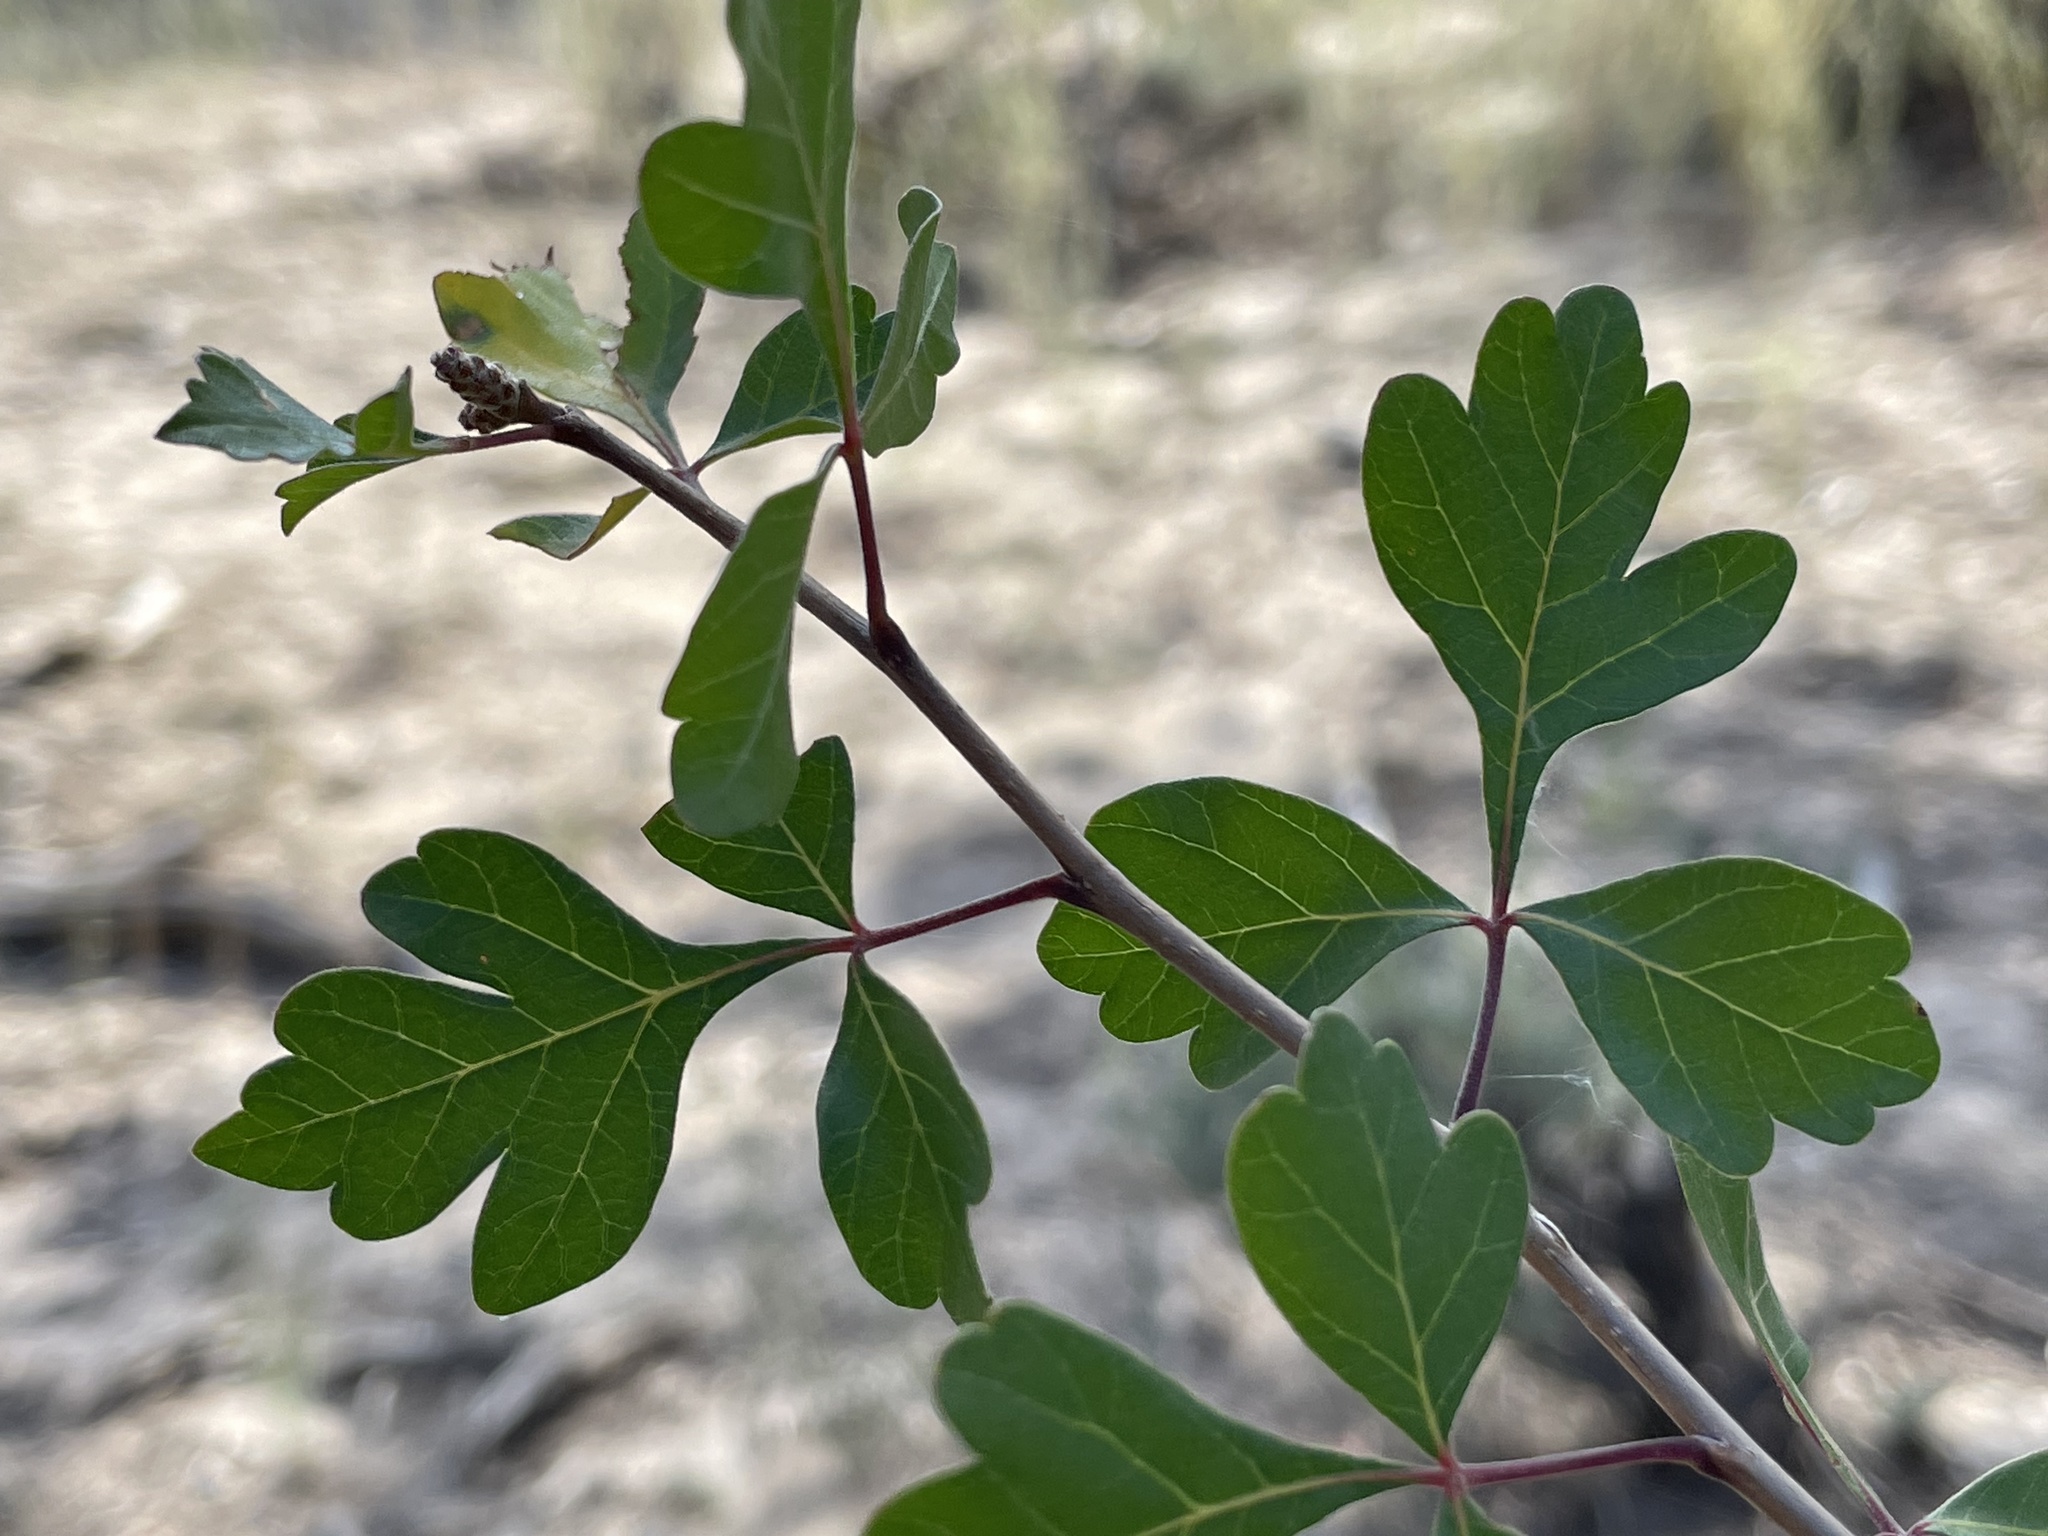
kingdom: Plantae
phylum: Tracheophyta
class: Magnoliopsida
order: Sapindales
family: Anacardiaceae
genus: Rhus
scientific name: Rhus trilobata
